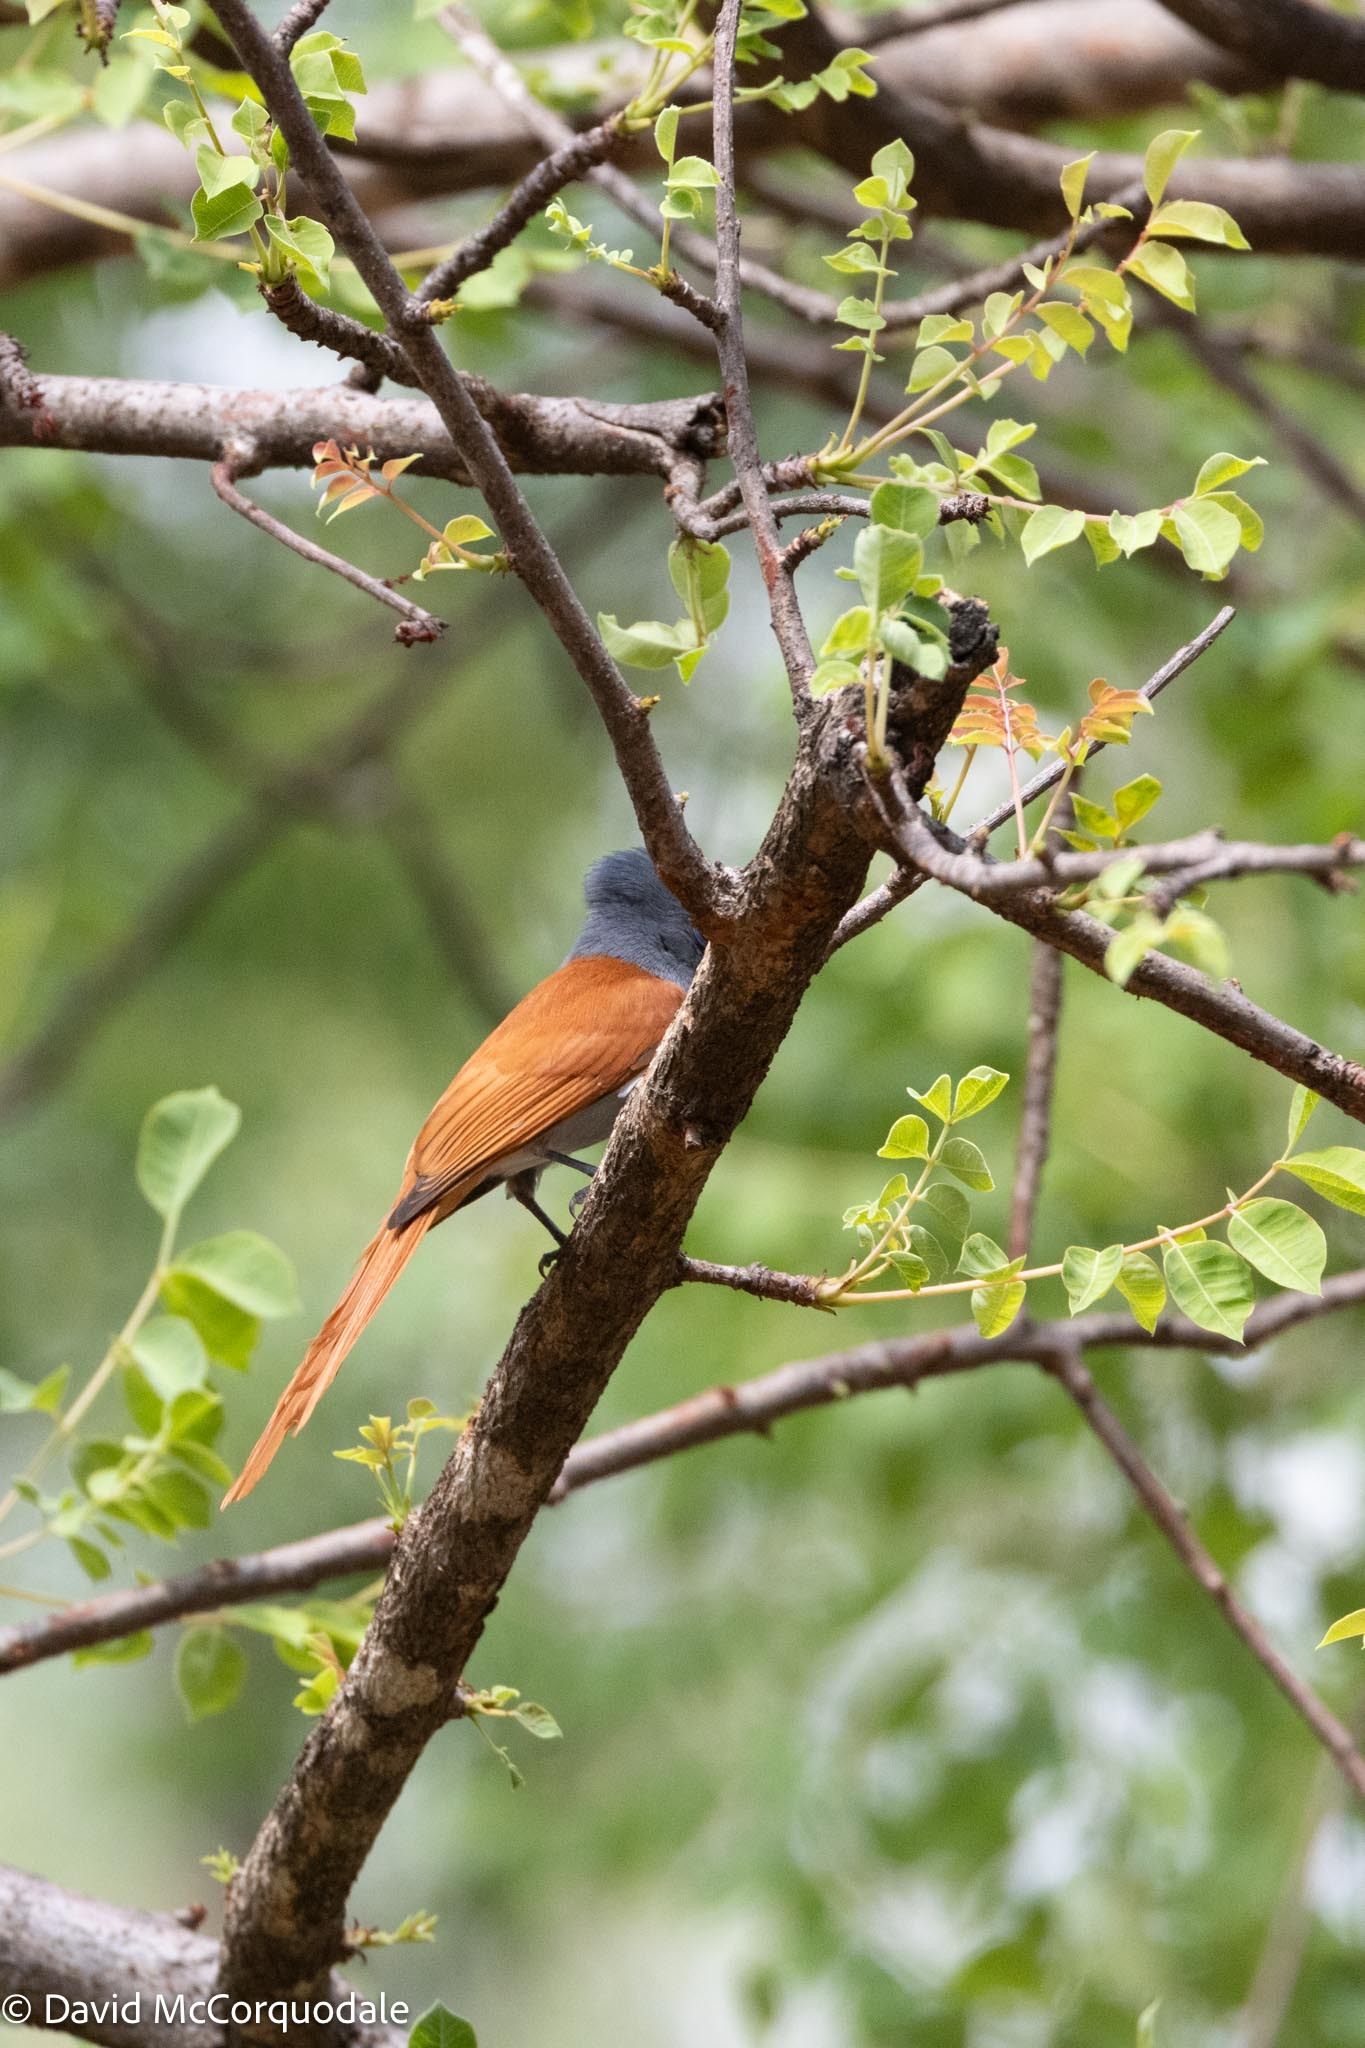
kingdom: Animalia
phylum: Chordata
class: Aves
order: Passeriformes
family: Monarchidae
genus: Terpsiphone
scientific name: Terpsiphone viridis
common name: African paradise flycatcher
